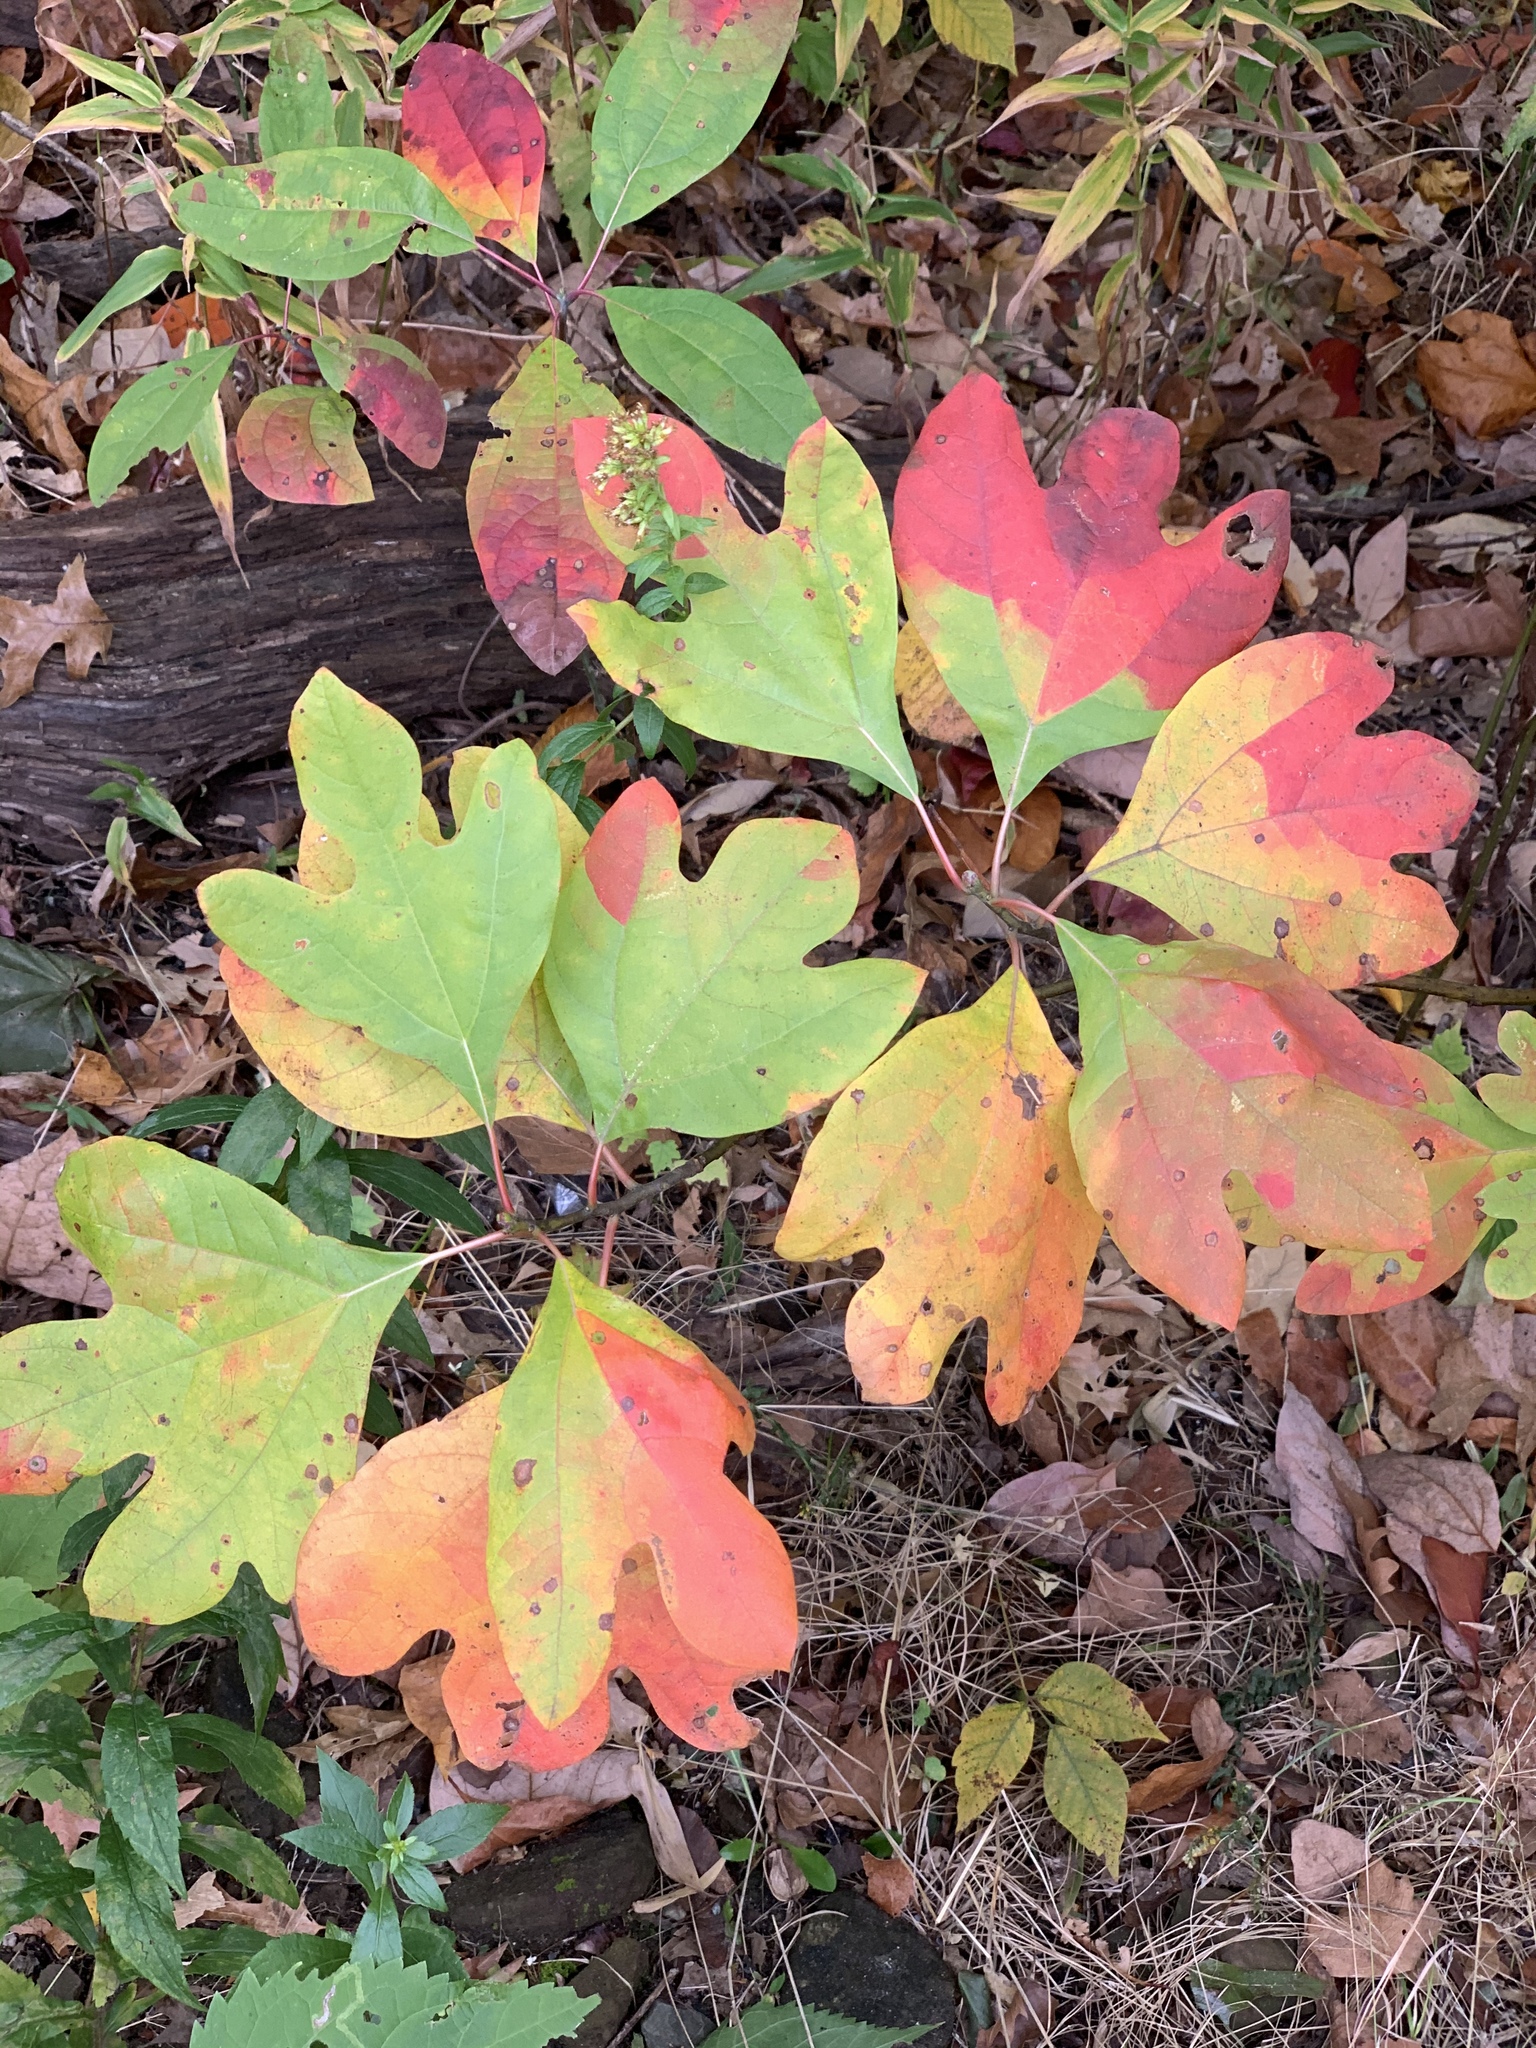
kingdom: Plantae
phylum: Tracheophyta
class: Magnoliopsida
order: Laurales
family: Lauraceae
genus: Sassafras
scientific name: Sassafras albidum
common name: Sassafras
